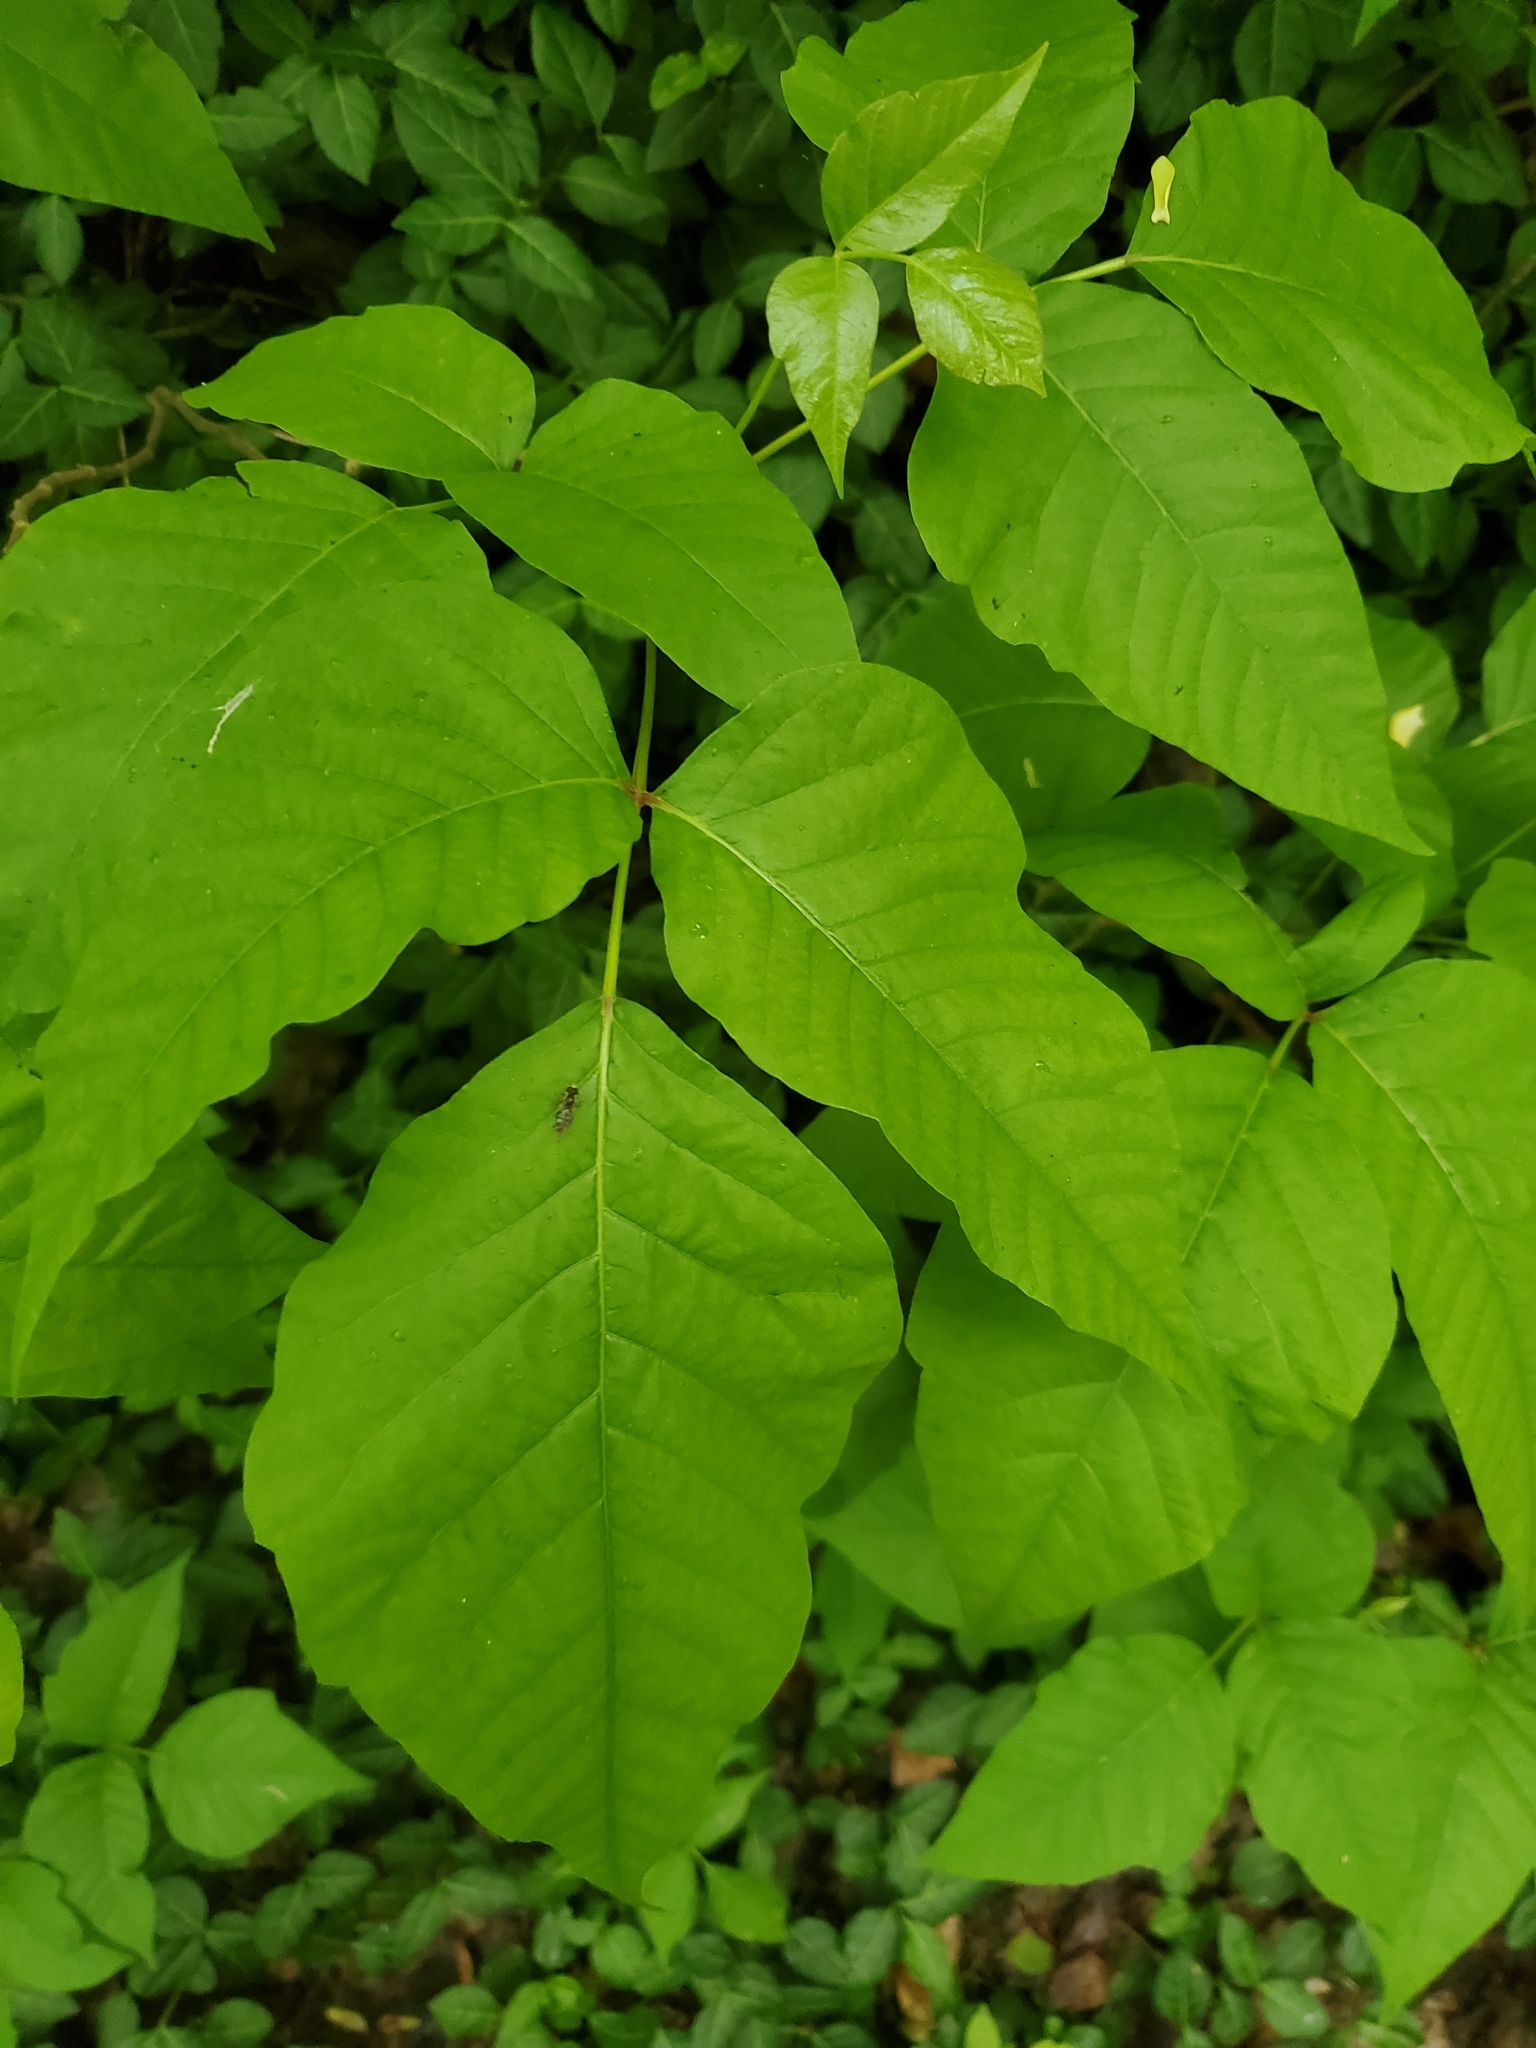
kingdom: Plantae
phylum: Tracheophyta
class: Magnoliopsida
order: Sapindales
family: Anacardiaceae
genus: Toxicodendron
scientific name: Toxicodendron radicans
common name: Poison ivy
